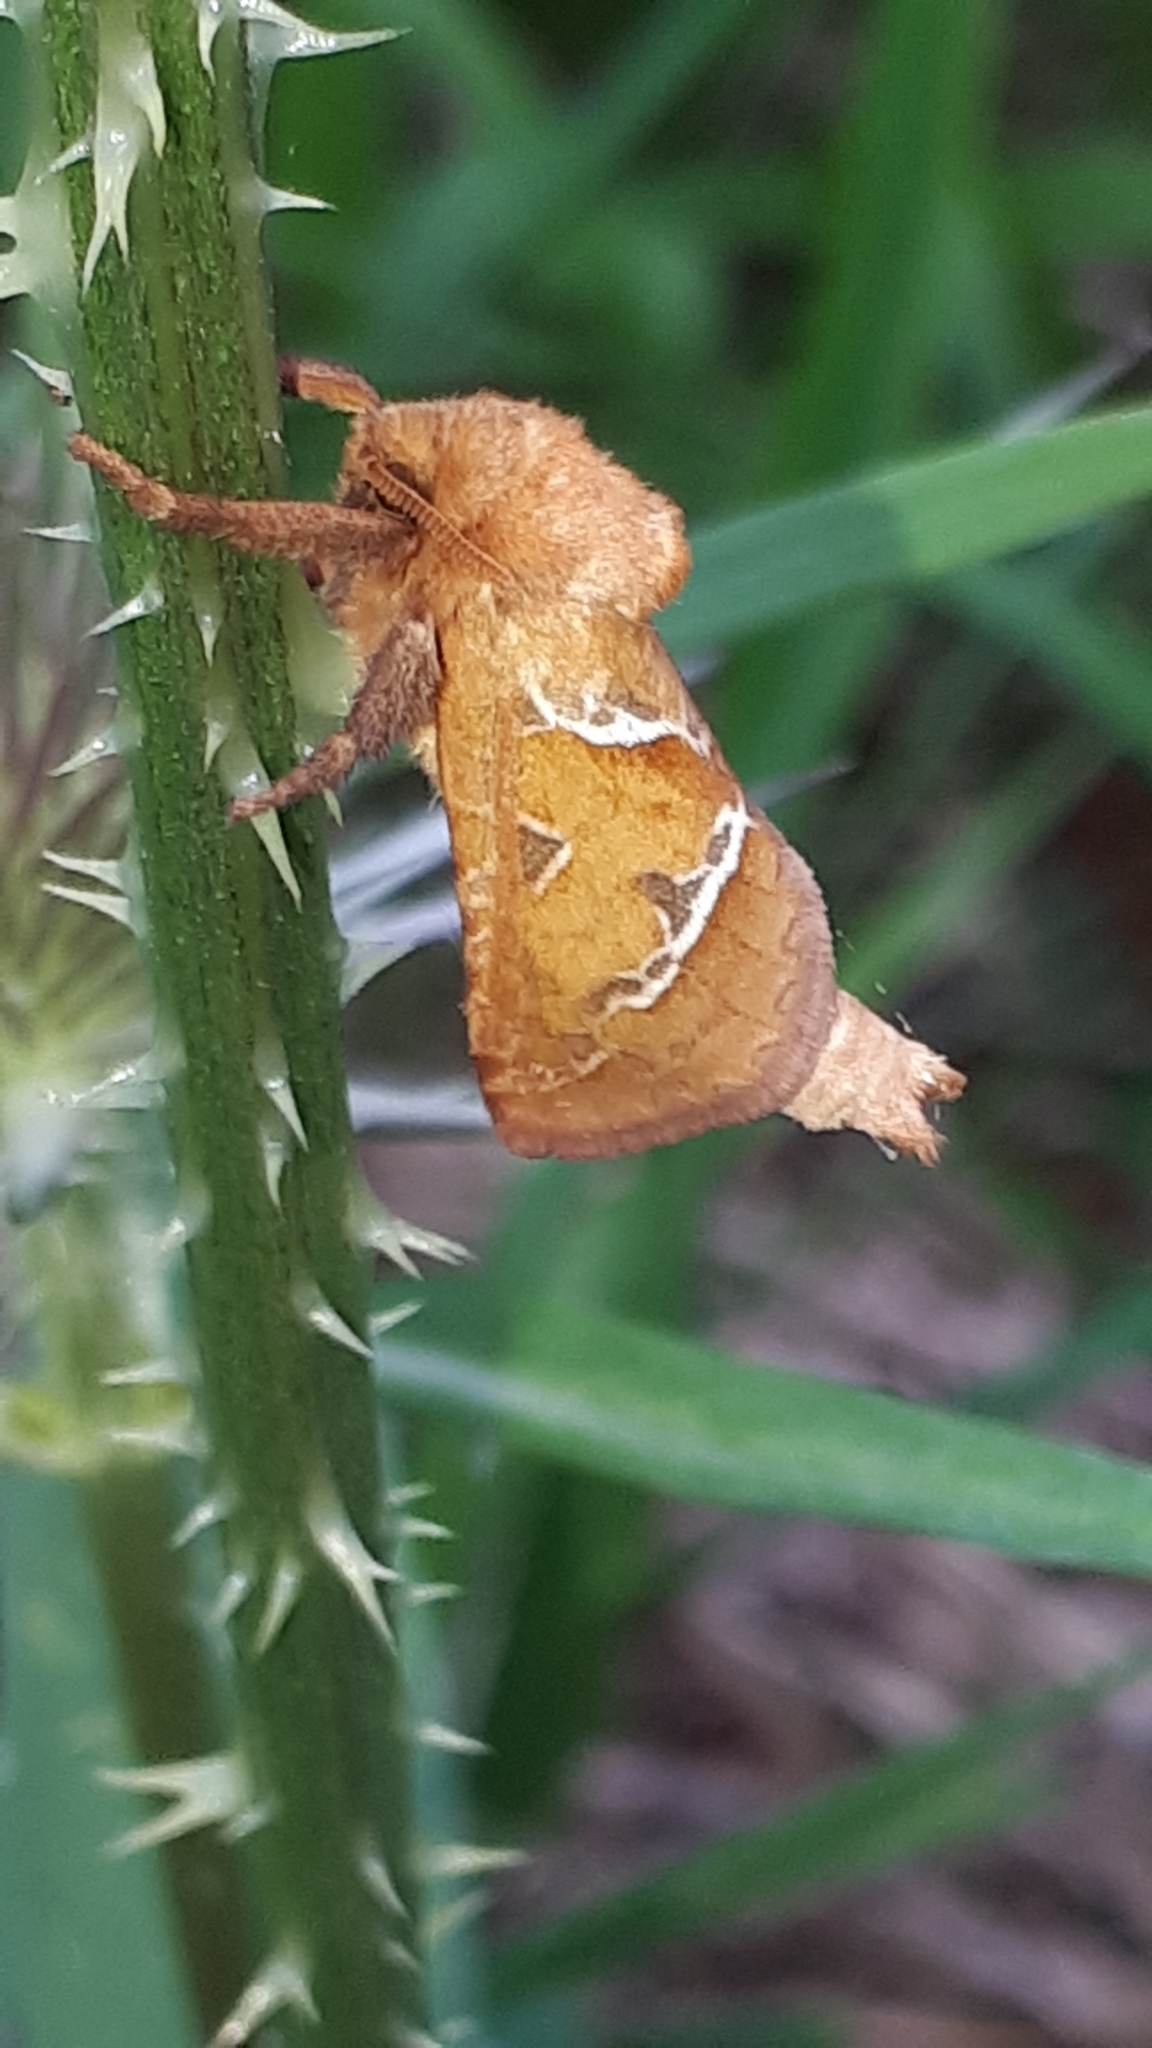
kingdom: Animalia
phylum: Arthropoda
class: Insecta
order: Lepidoptera
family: Hepialidae
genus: Triodia
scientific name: Triodia sylvina
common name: Orange swift
